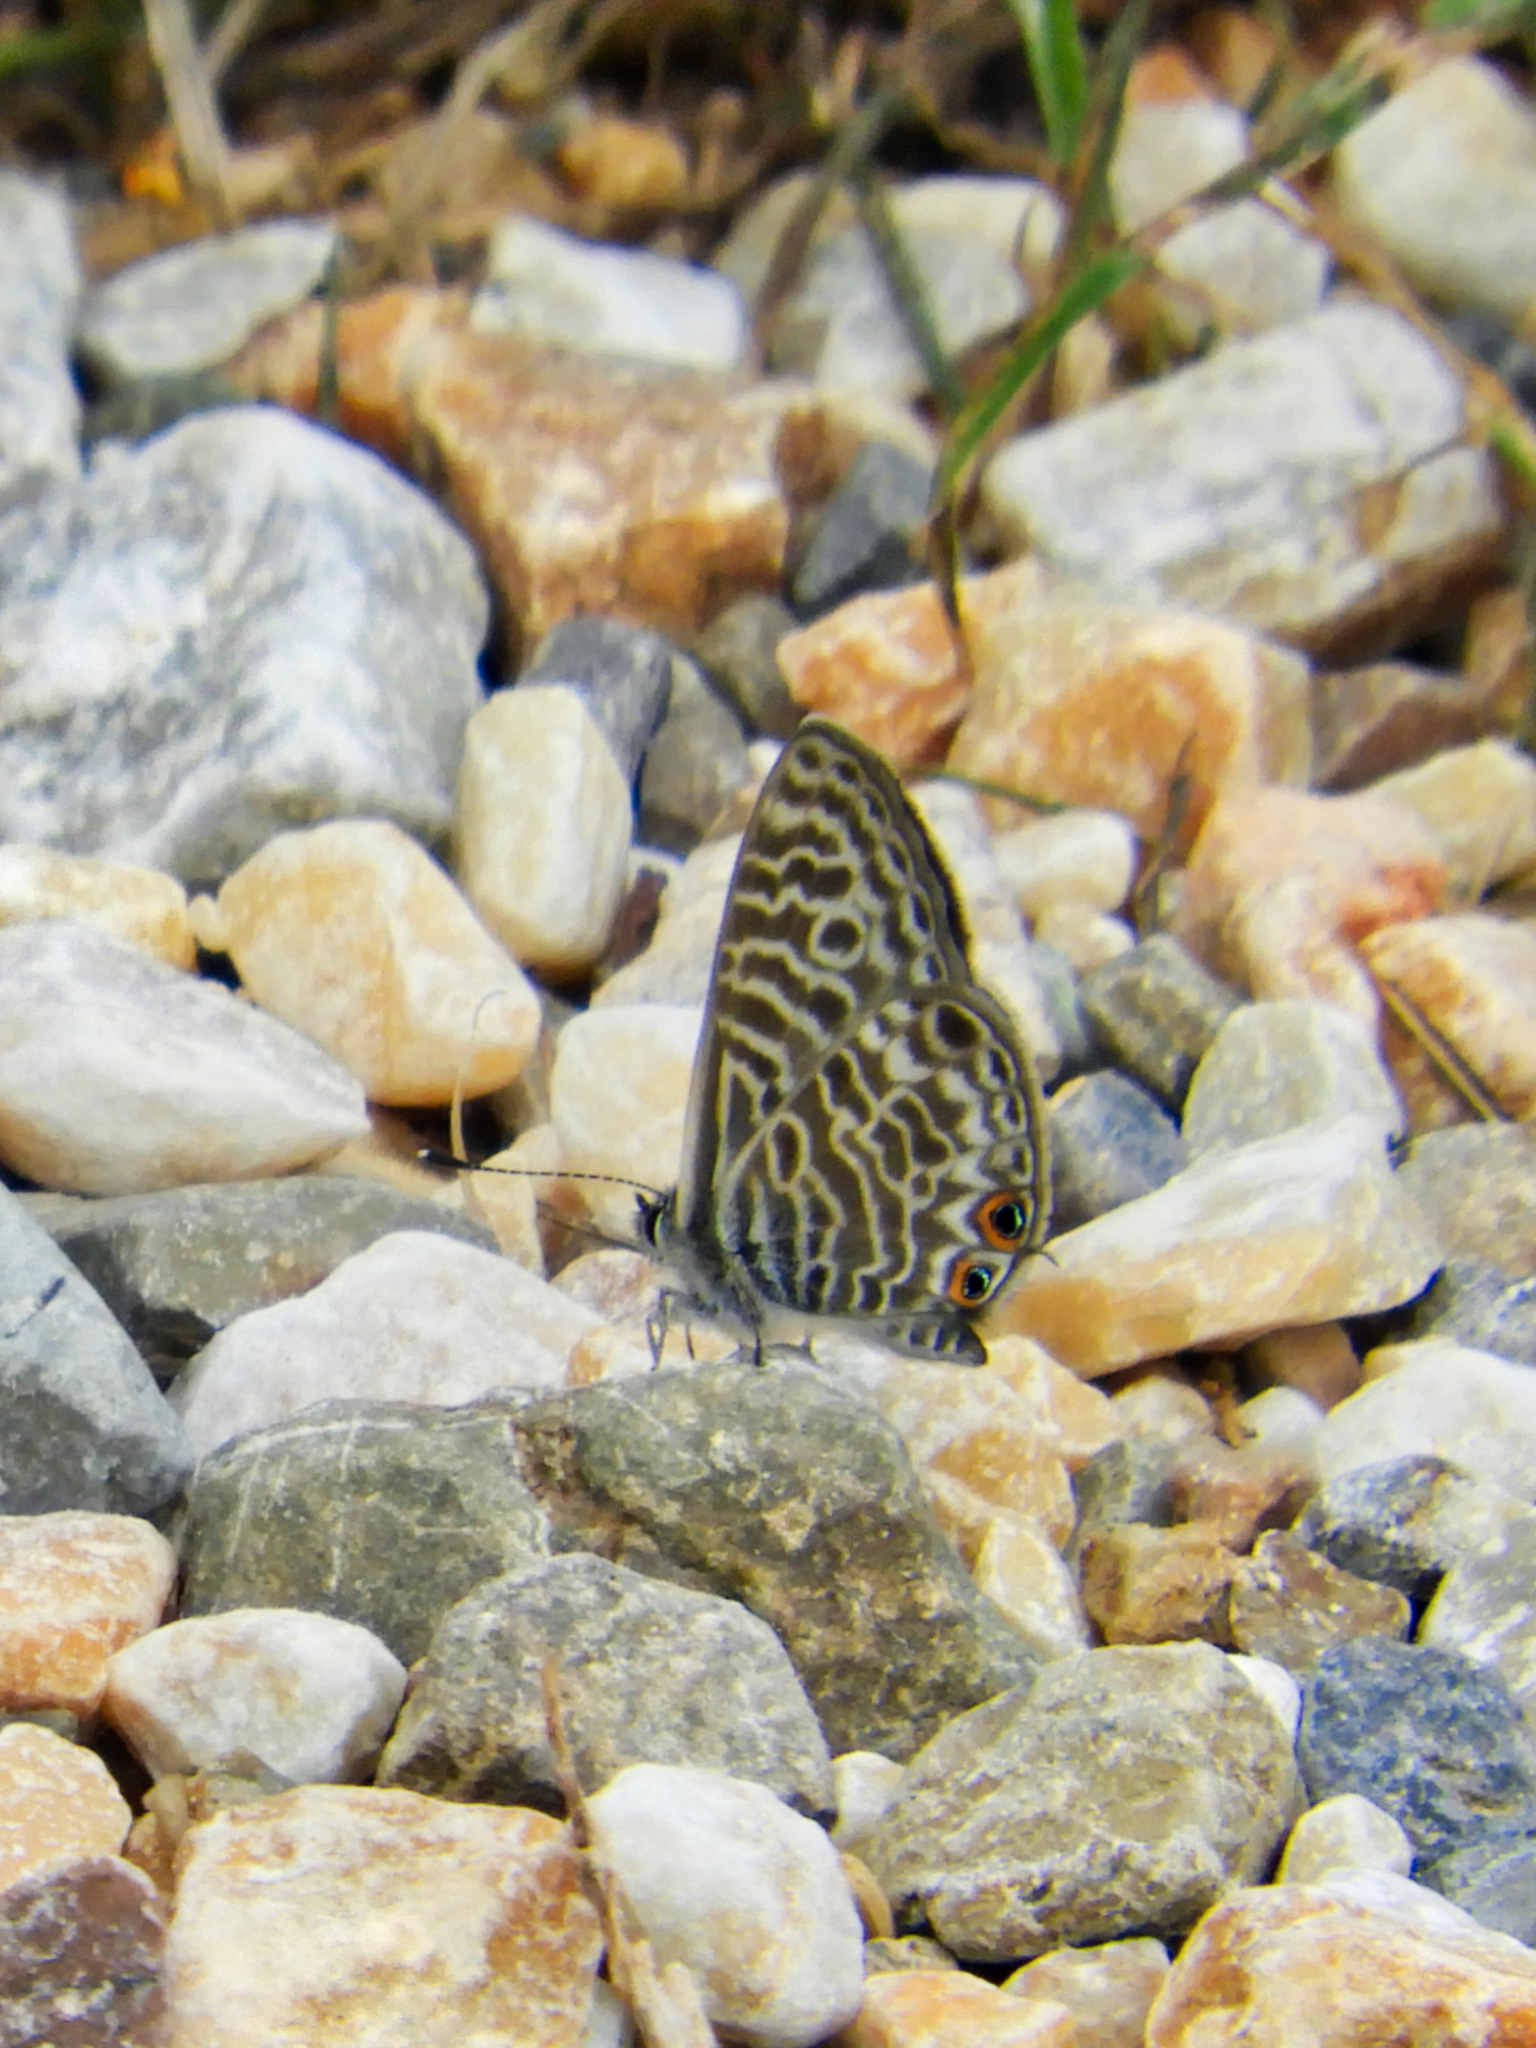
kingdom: Animalia
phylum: Arthropoda
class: Insecta
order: Lepidoptera
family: Lycaenidae
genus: Leptotes
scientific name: Leptotes pirithous
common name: Lang's short-tailed blue
